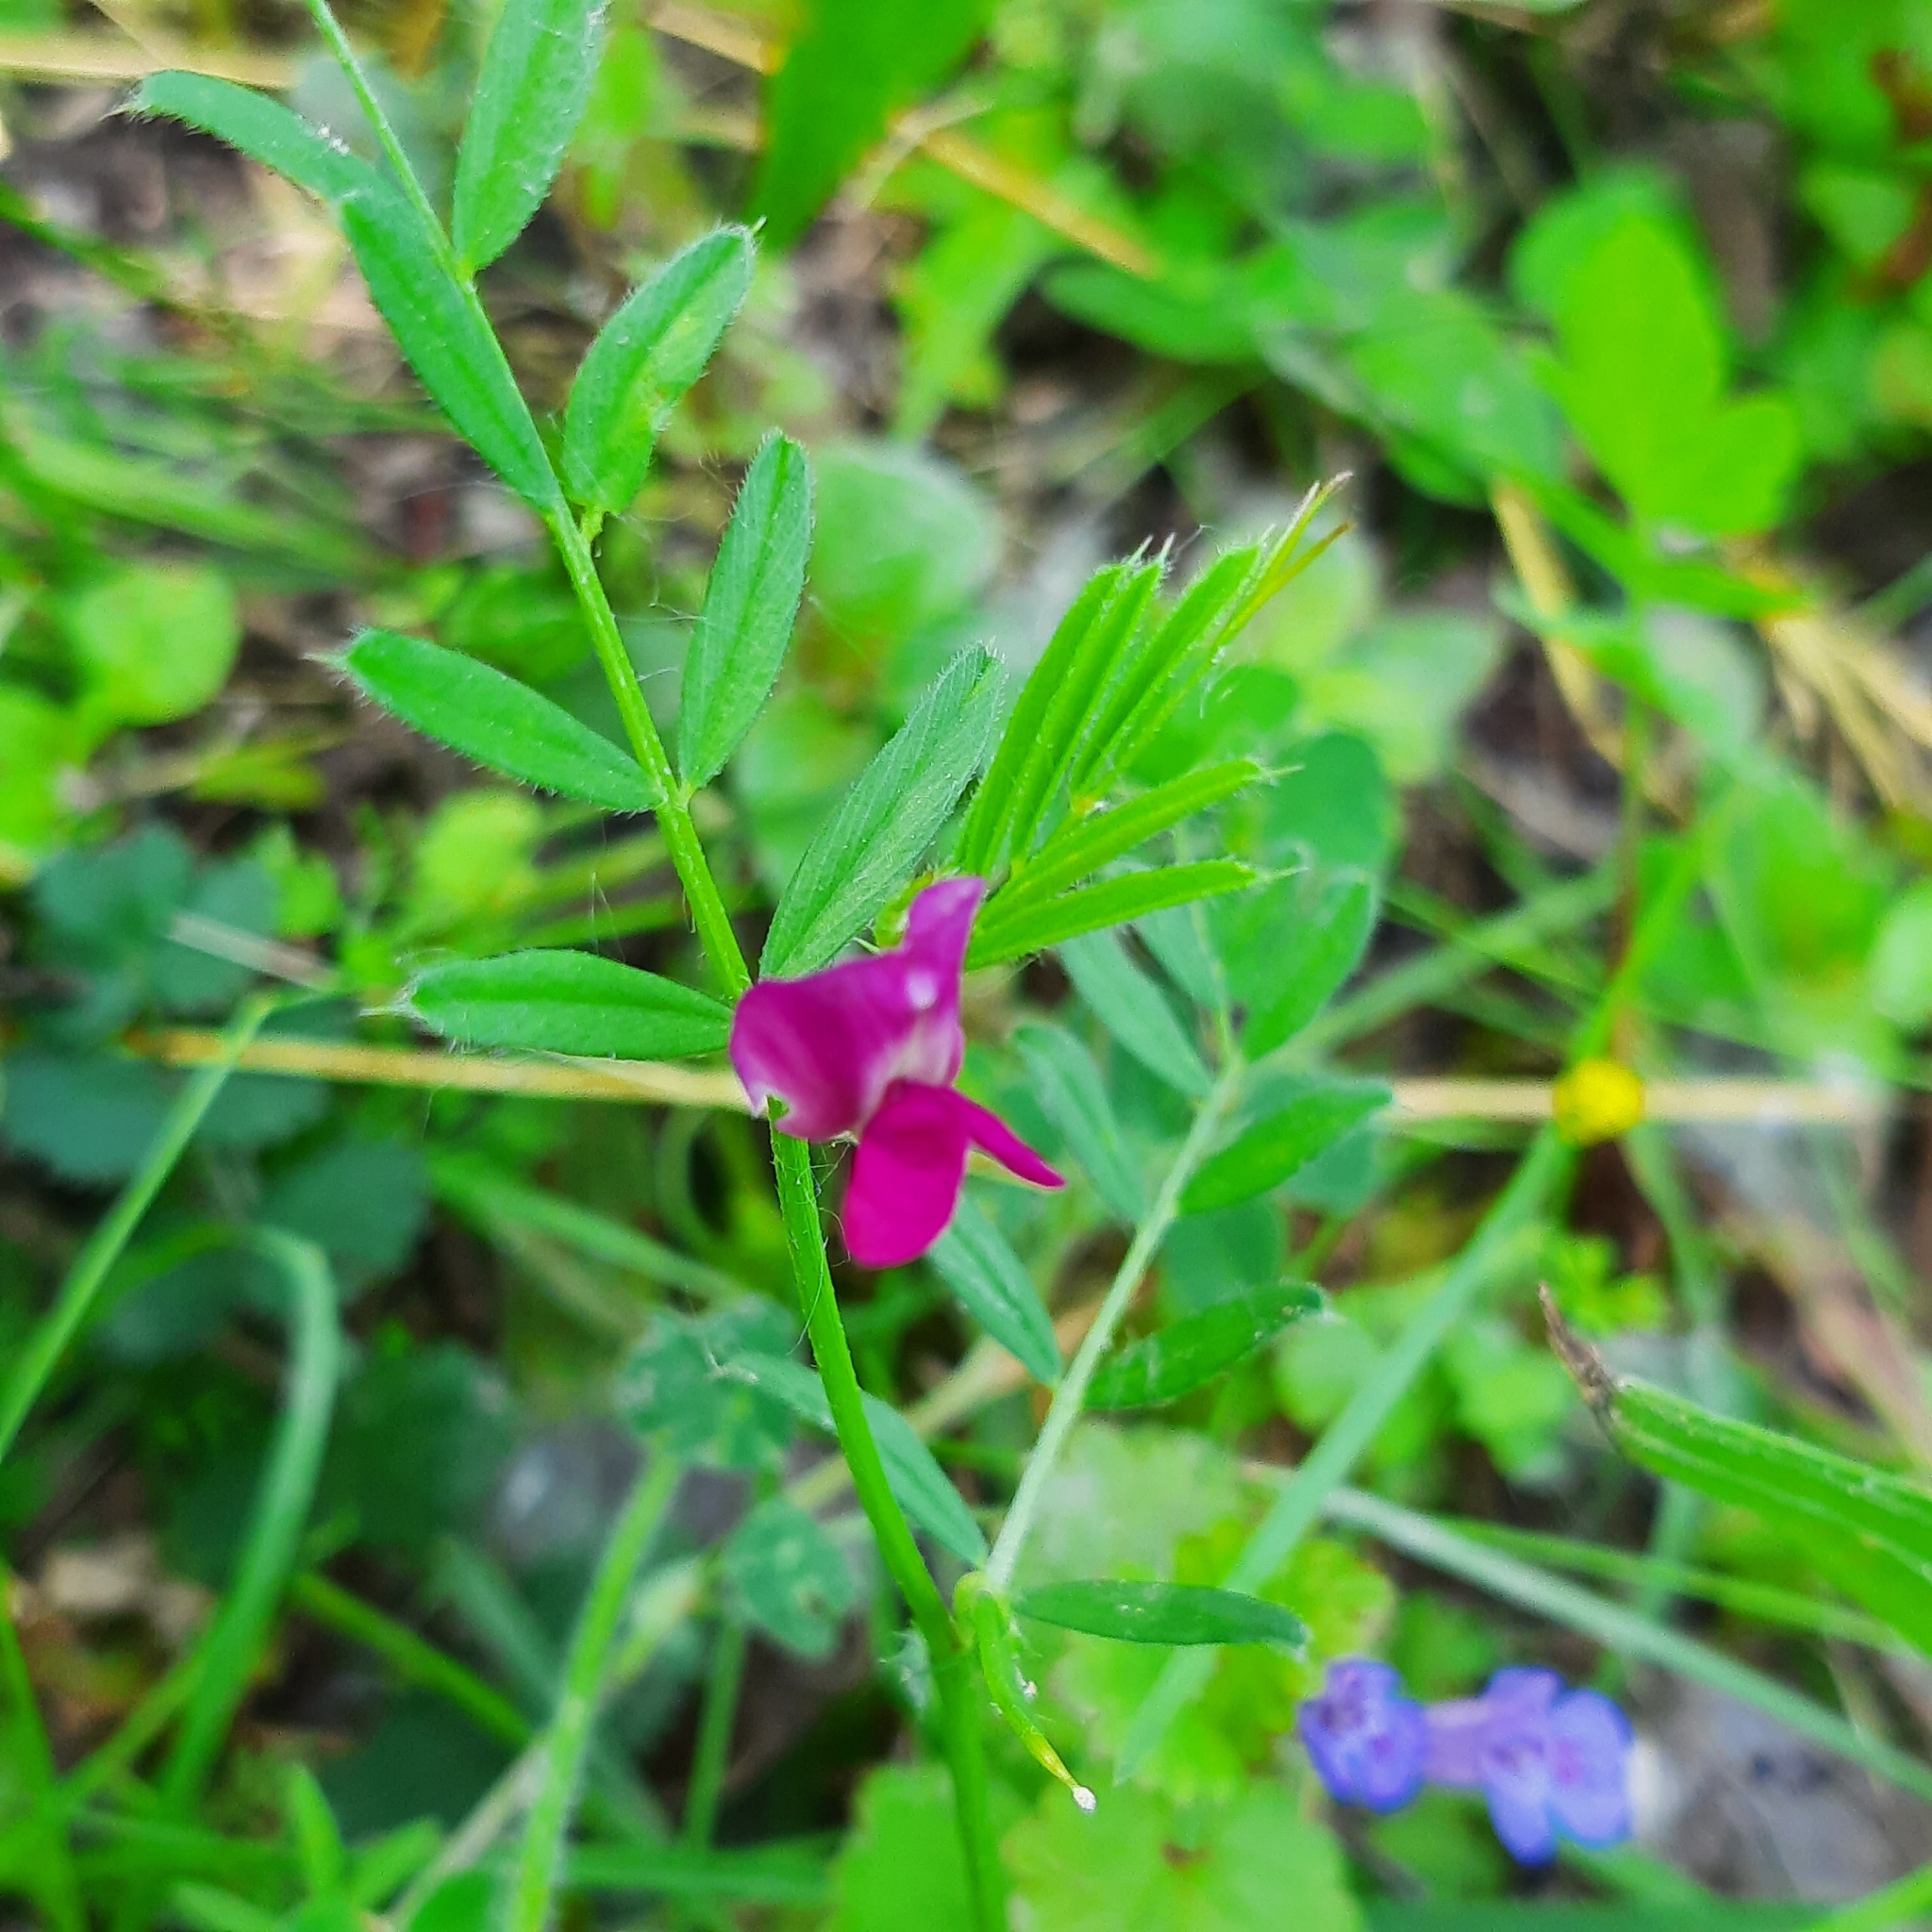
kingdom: Plantae
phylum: Tracheophyta
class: Magnoliopsida
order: Fabales
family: Fabaceae
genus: Vicia
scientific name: Vicia sativa
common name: Garden vetch
